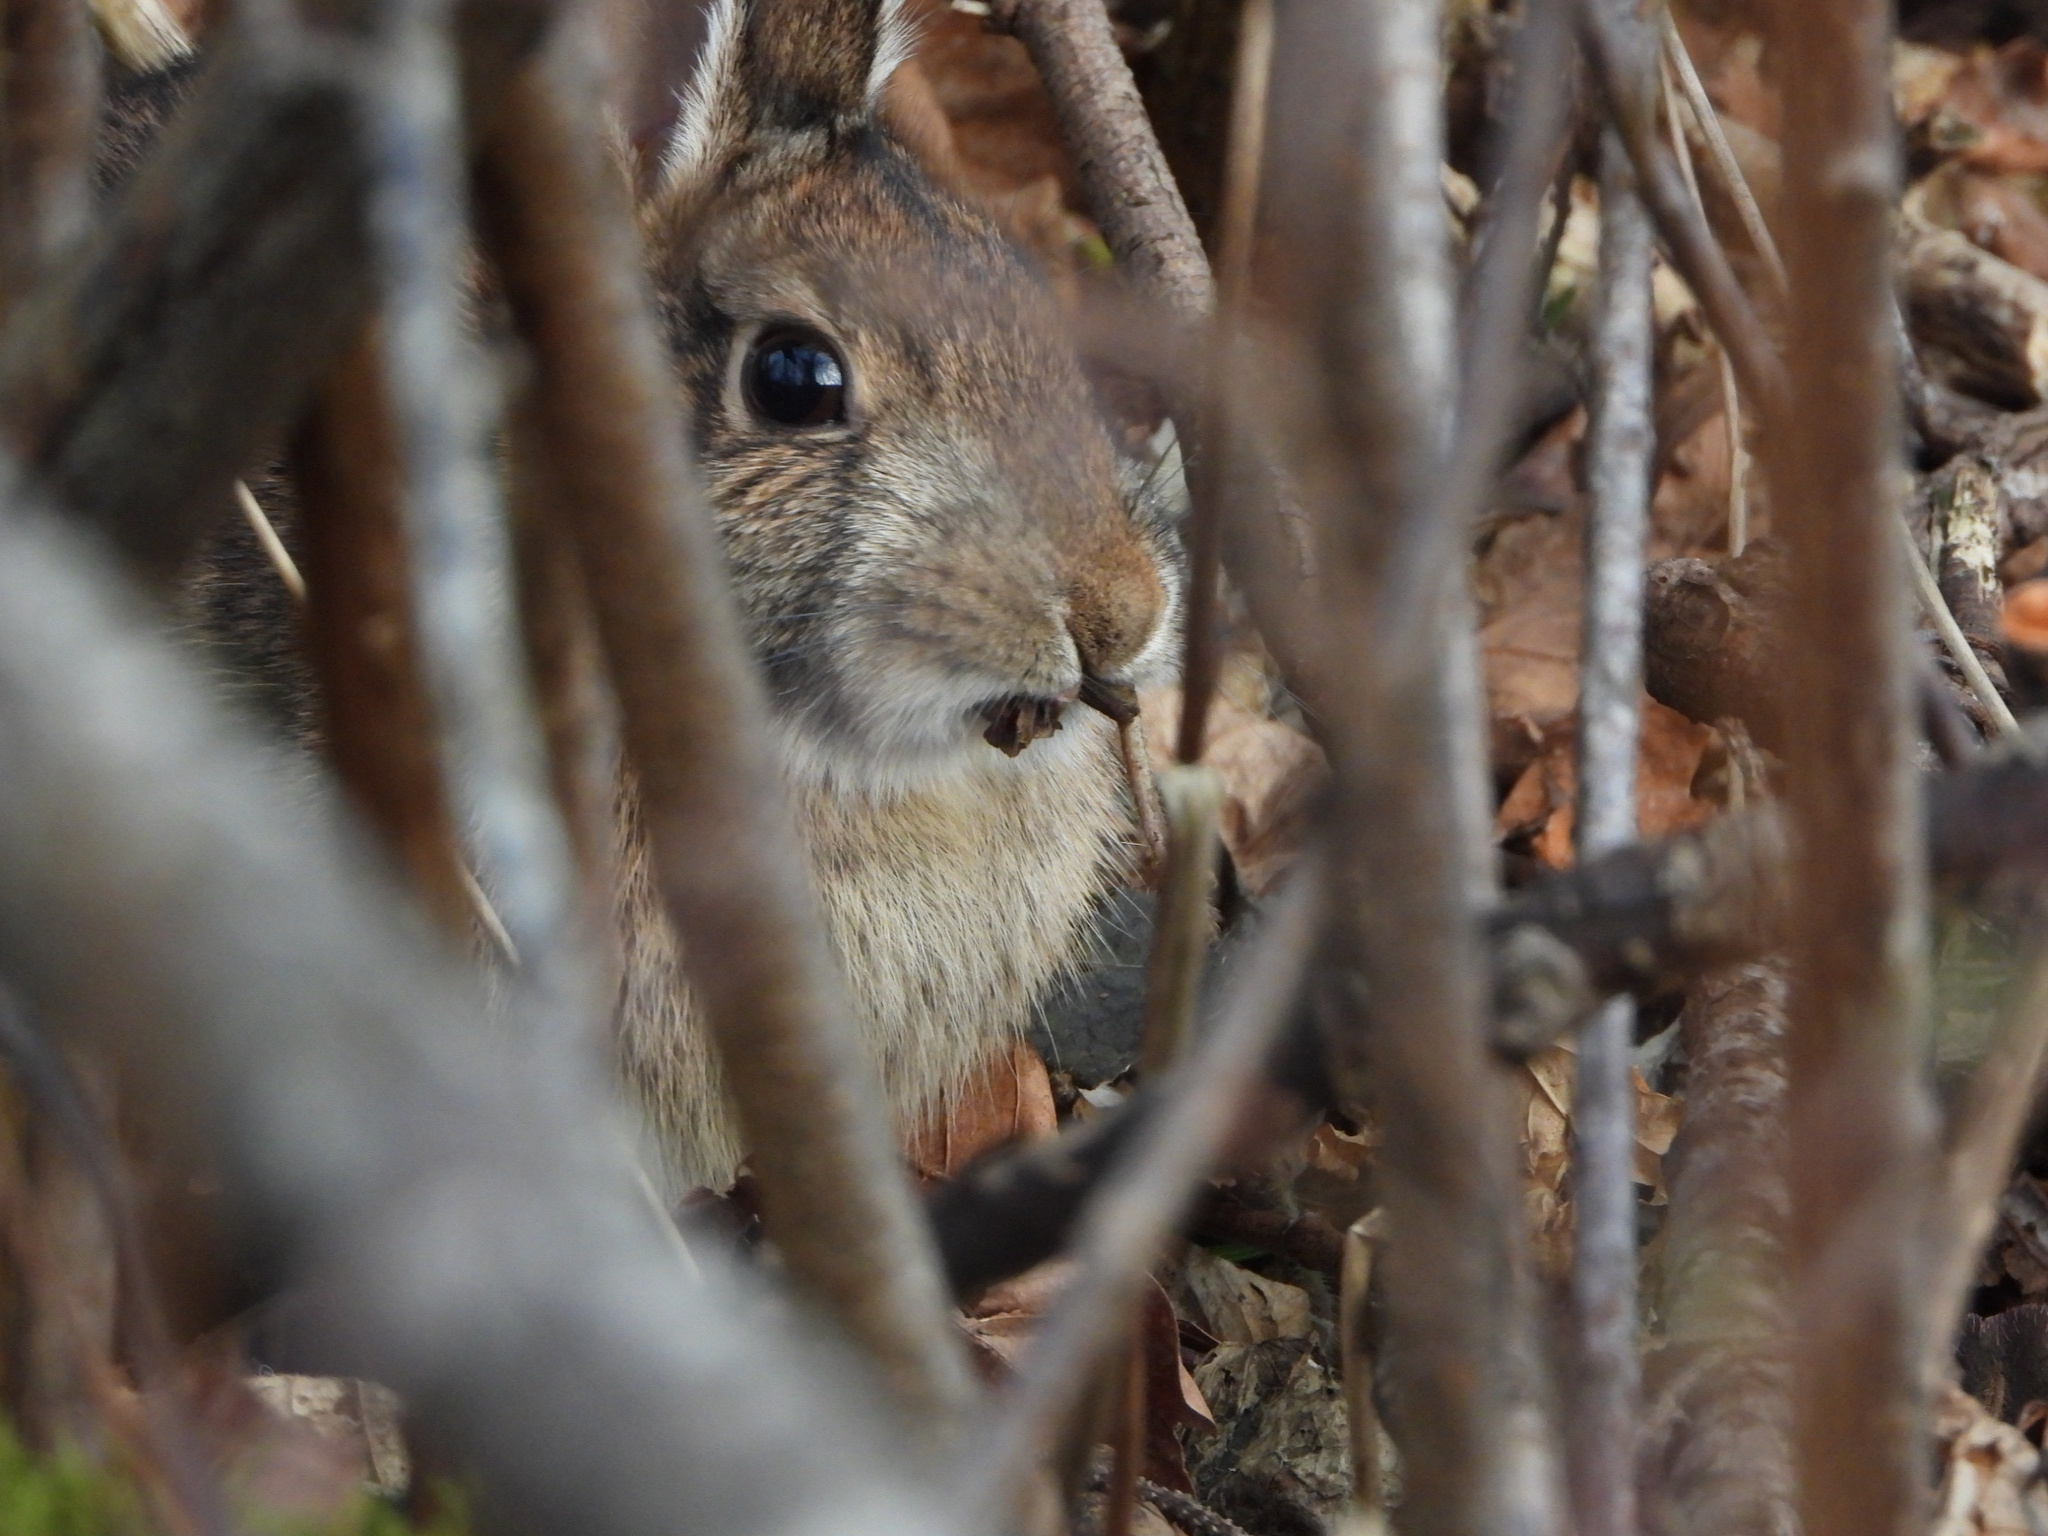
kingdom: Animalia
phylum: Chordata
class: Mammalia
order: Lagomorpha
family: Leporidae
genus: Sylvilagus
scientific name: Sylvilagus floridanus
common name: Eastern cottontail
